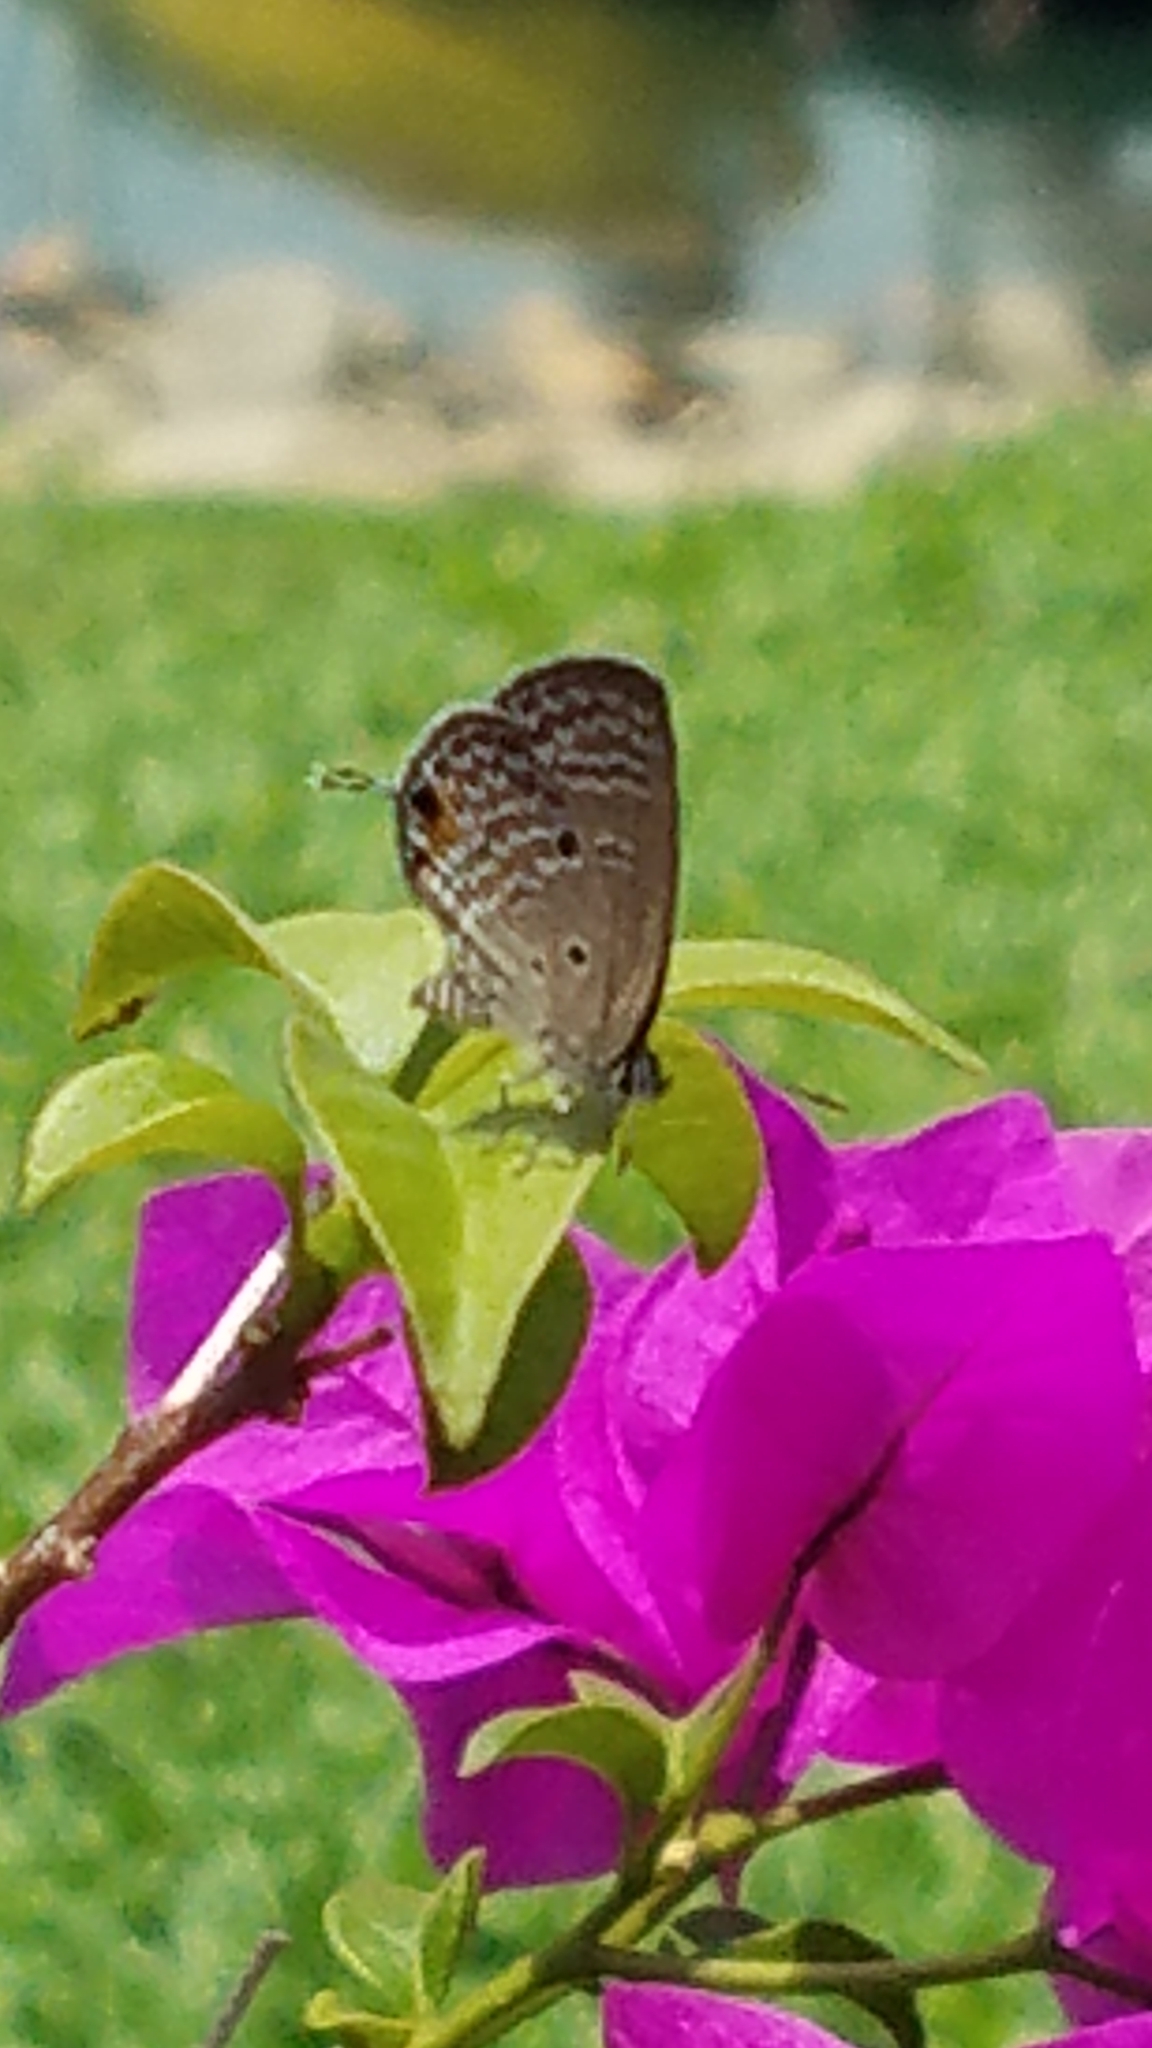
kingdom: Animalia
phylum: Arthropoda
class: Insecta
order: Lepidoptera
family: Lycaenidae
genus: Luthrodes
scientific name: Luthrodes pandava
